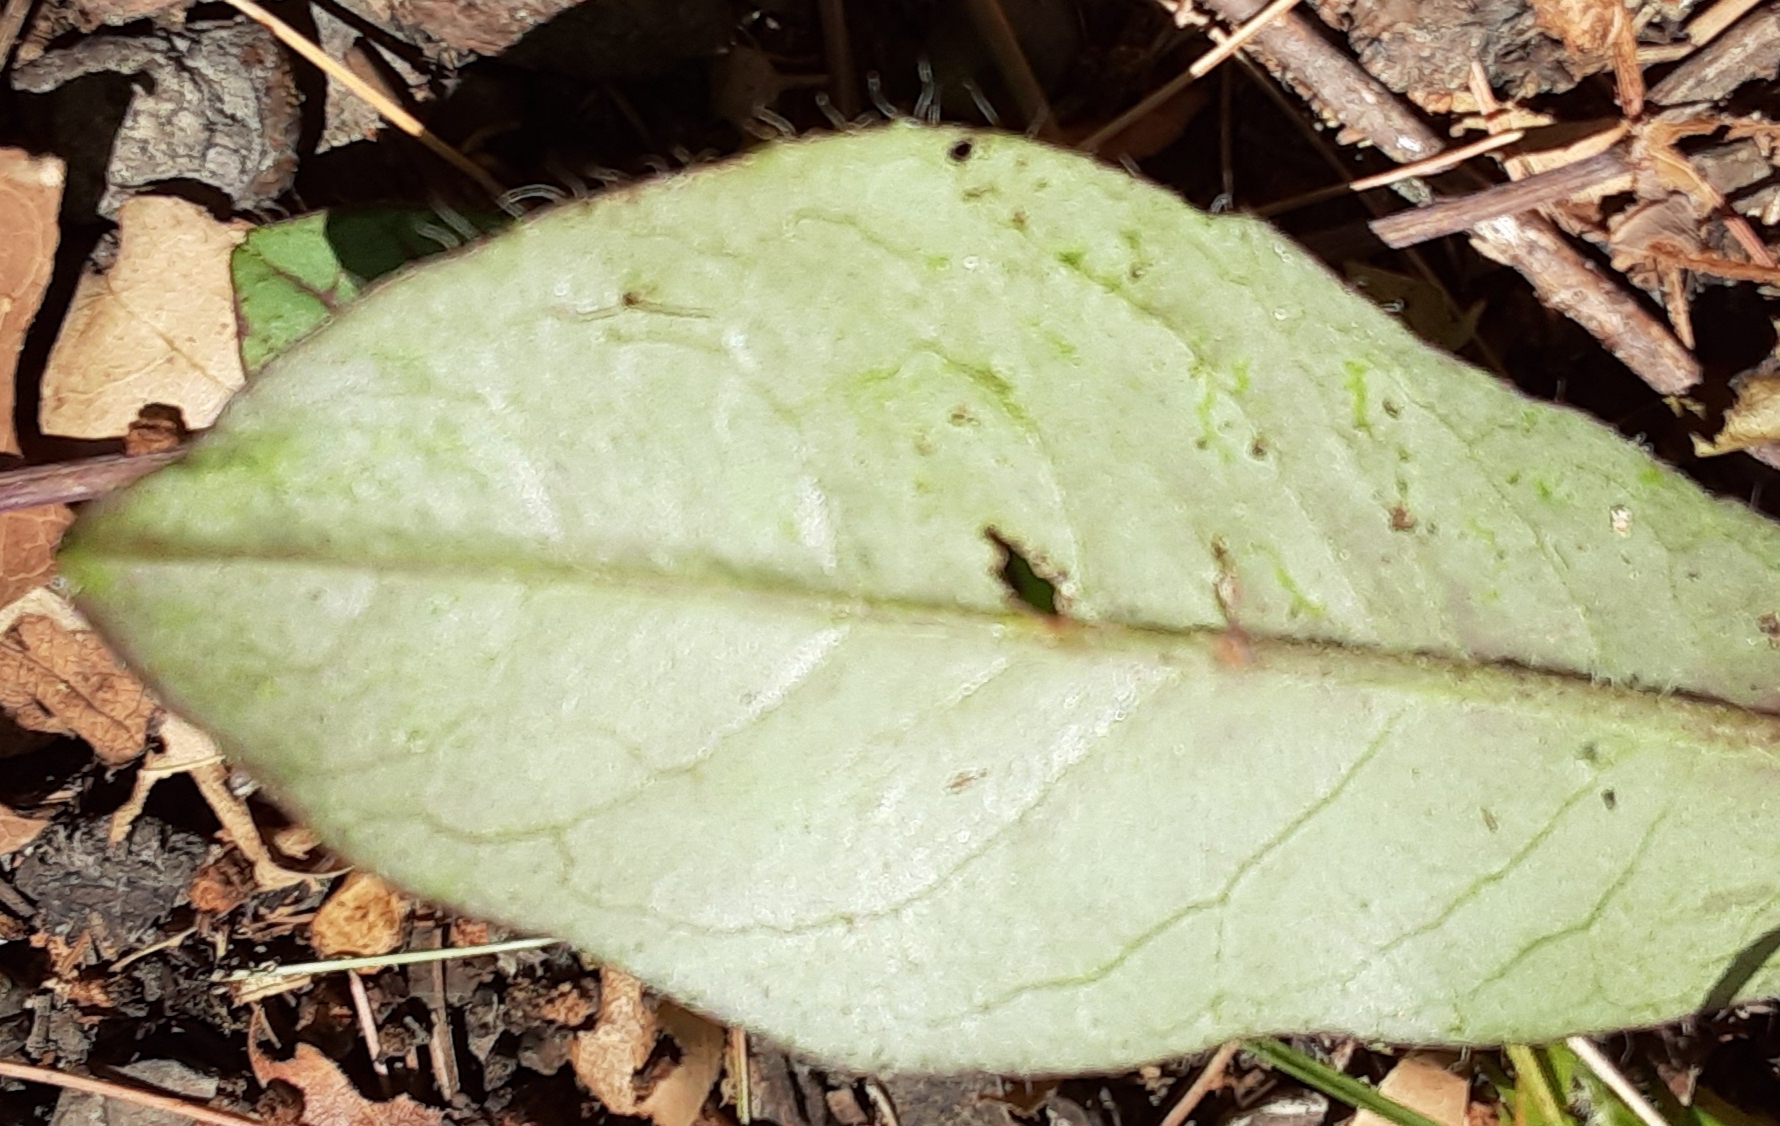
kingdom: Plantae
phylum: Tracheophyta
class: Magnoliopsida
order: Asterales
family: Asteraceae
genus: Hieracium
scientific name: Hieracium venosum
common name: Rattlesnake hawkweed
